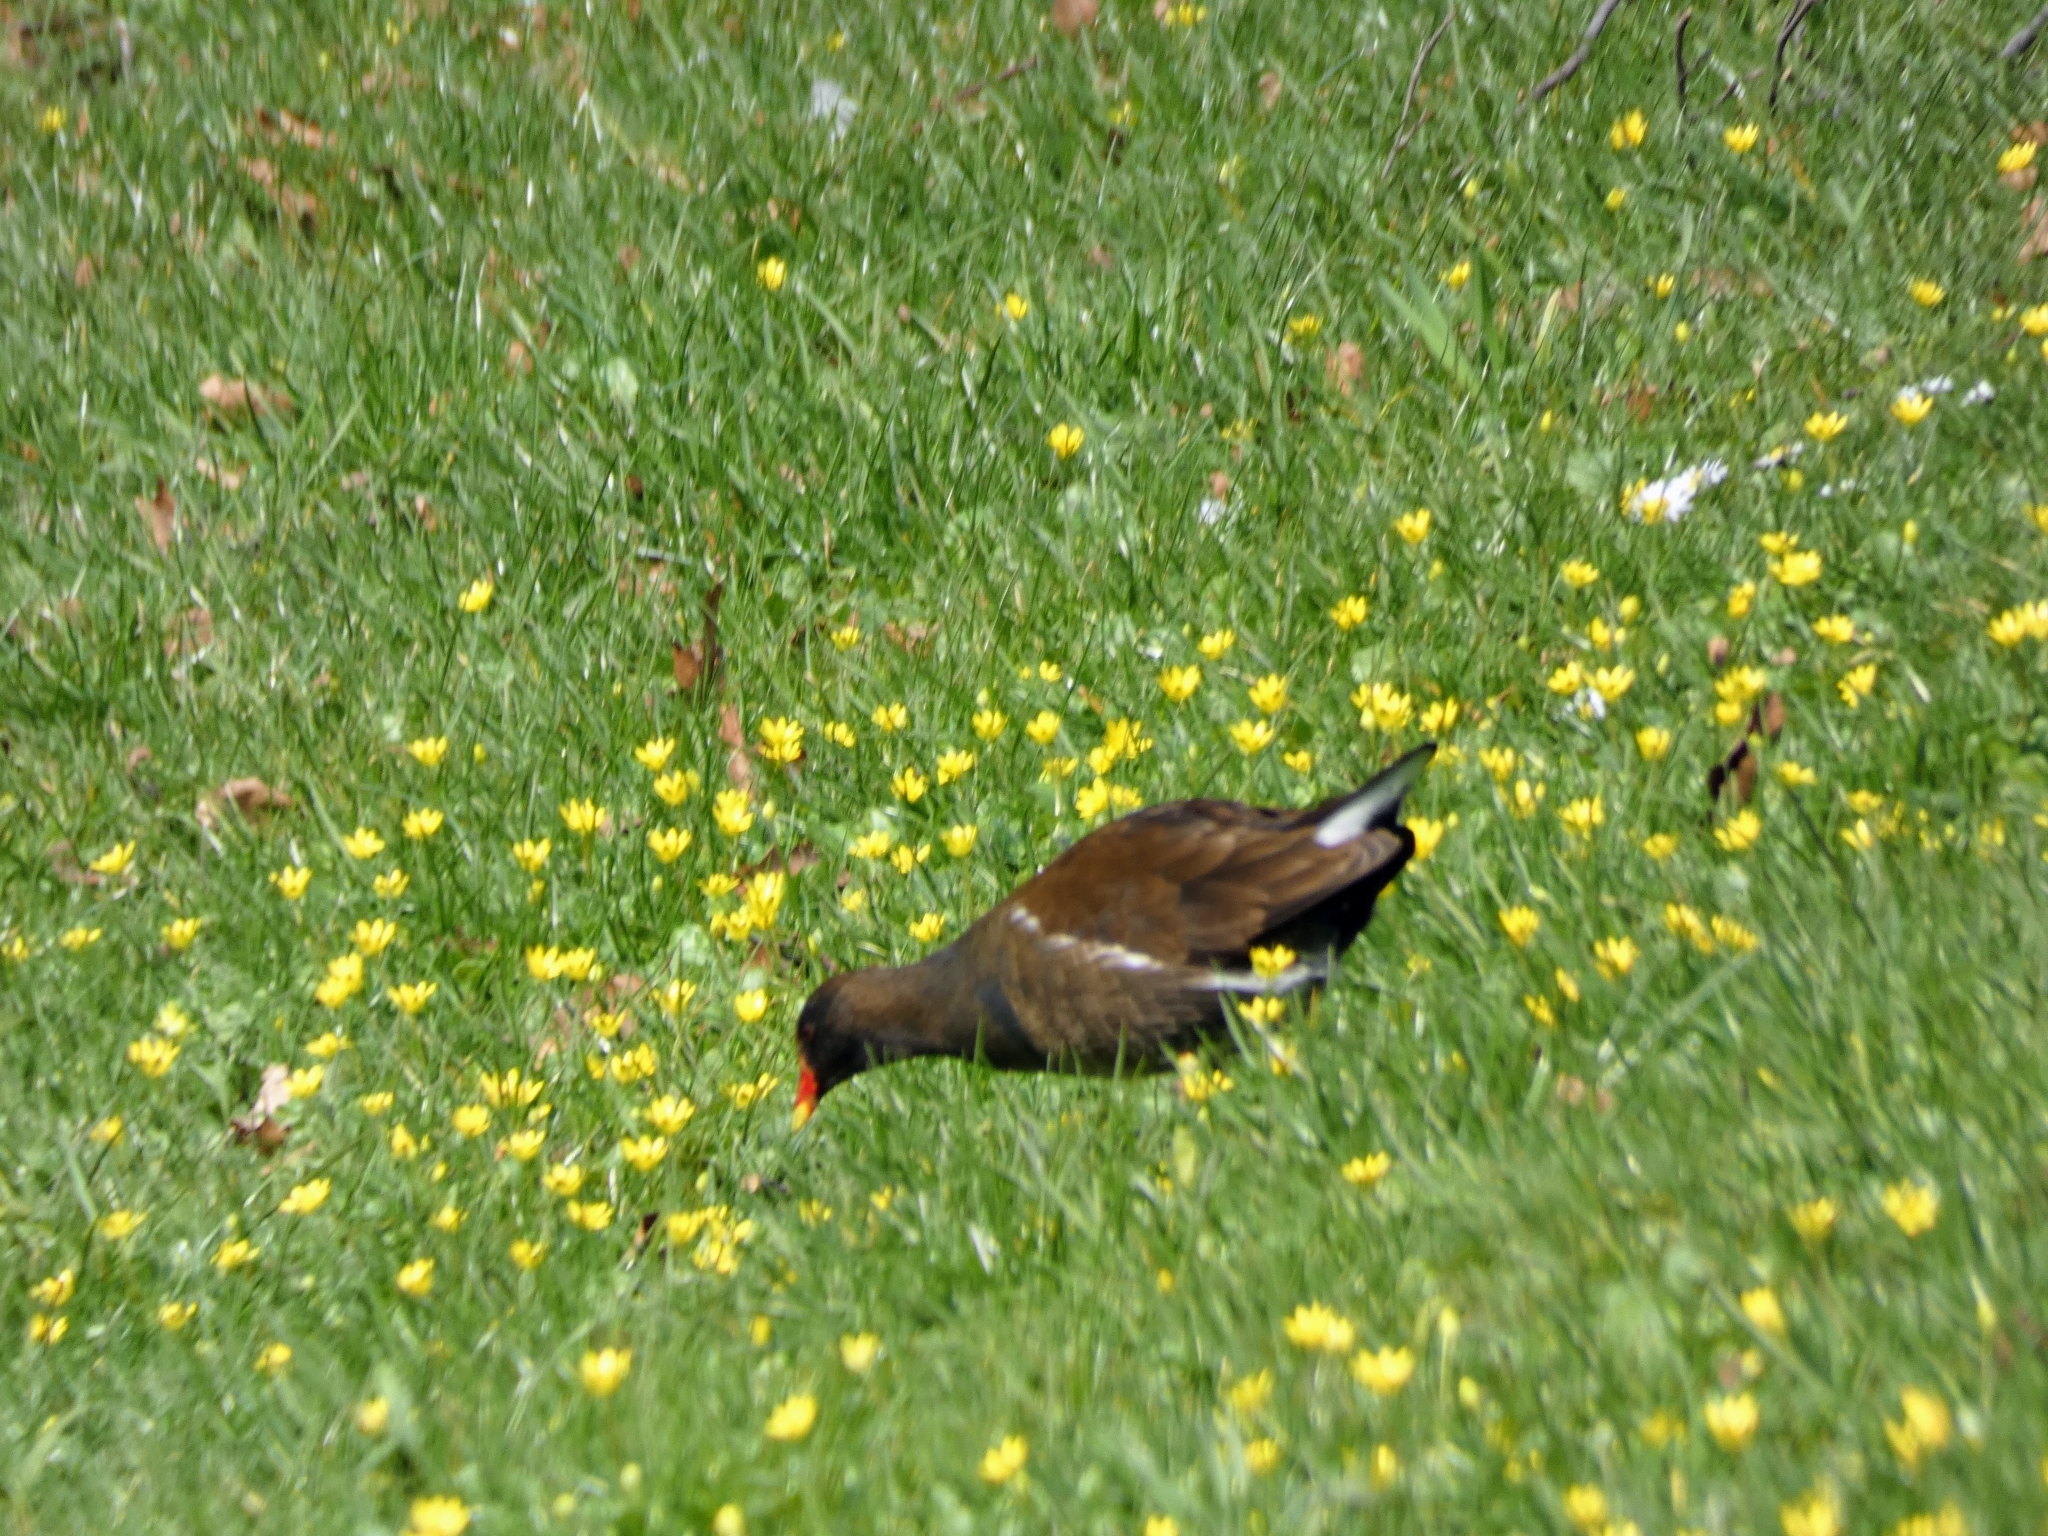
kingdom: Animalia
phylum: Chordata
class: Aves
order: Gruiformes
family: Rallidae
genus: Gallinula
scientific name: Gallinula chloropus
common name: Common moorhen
